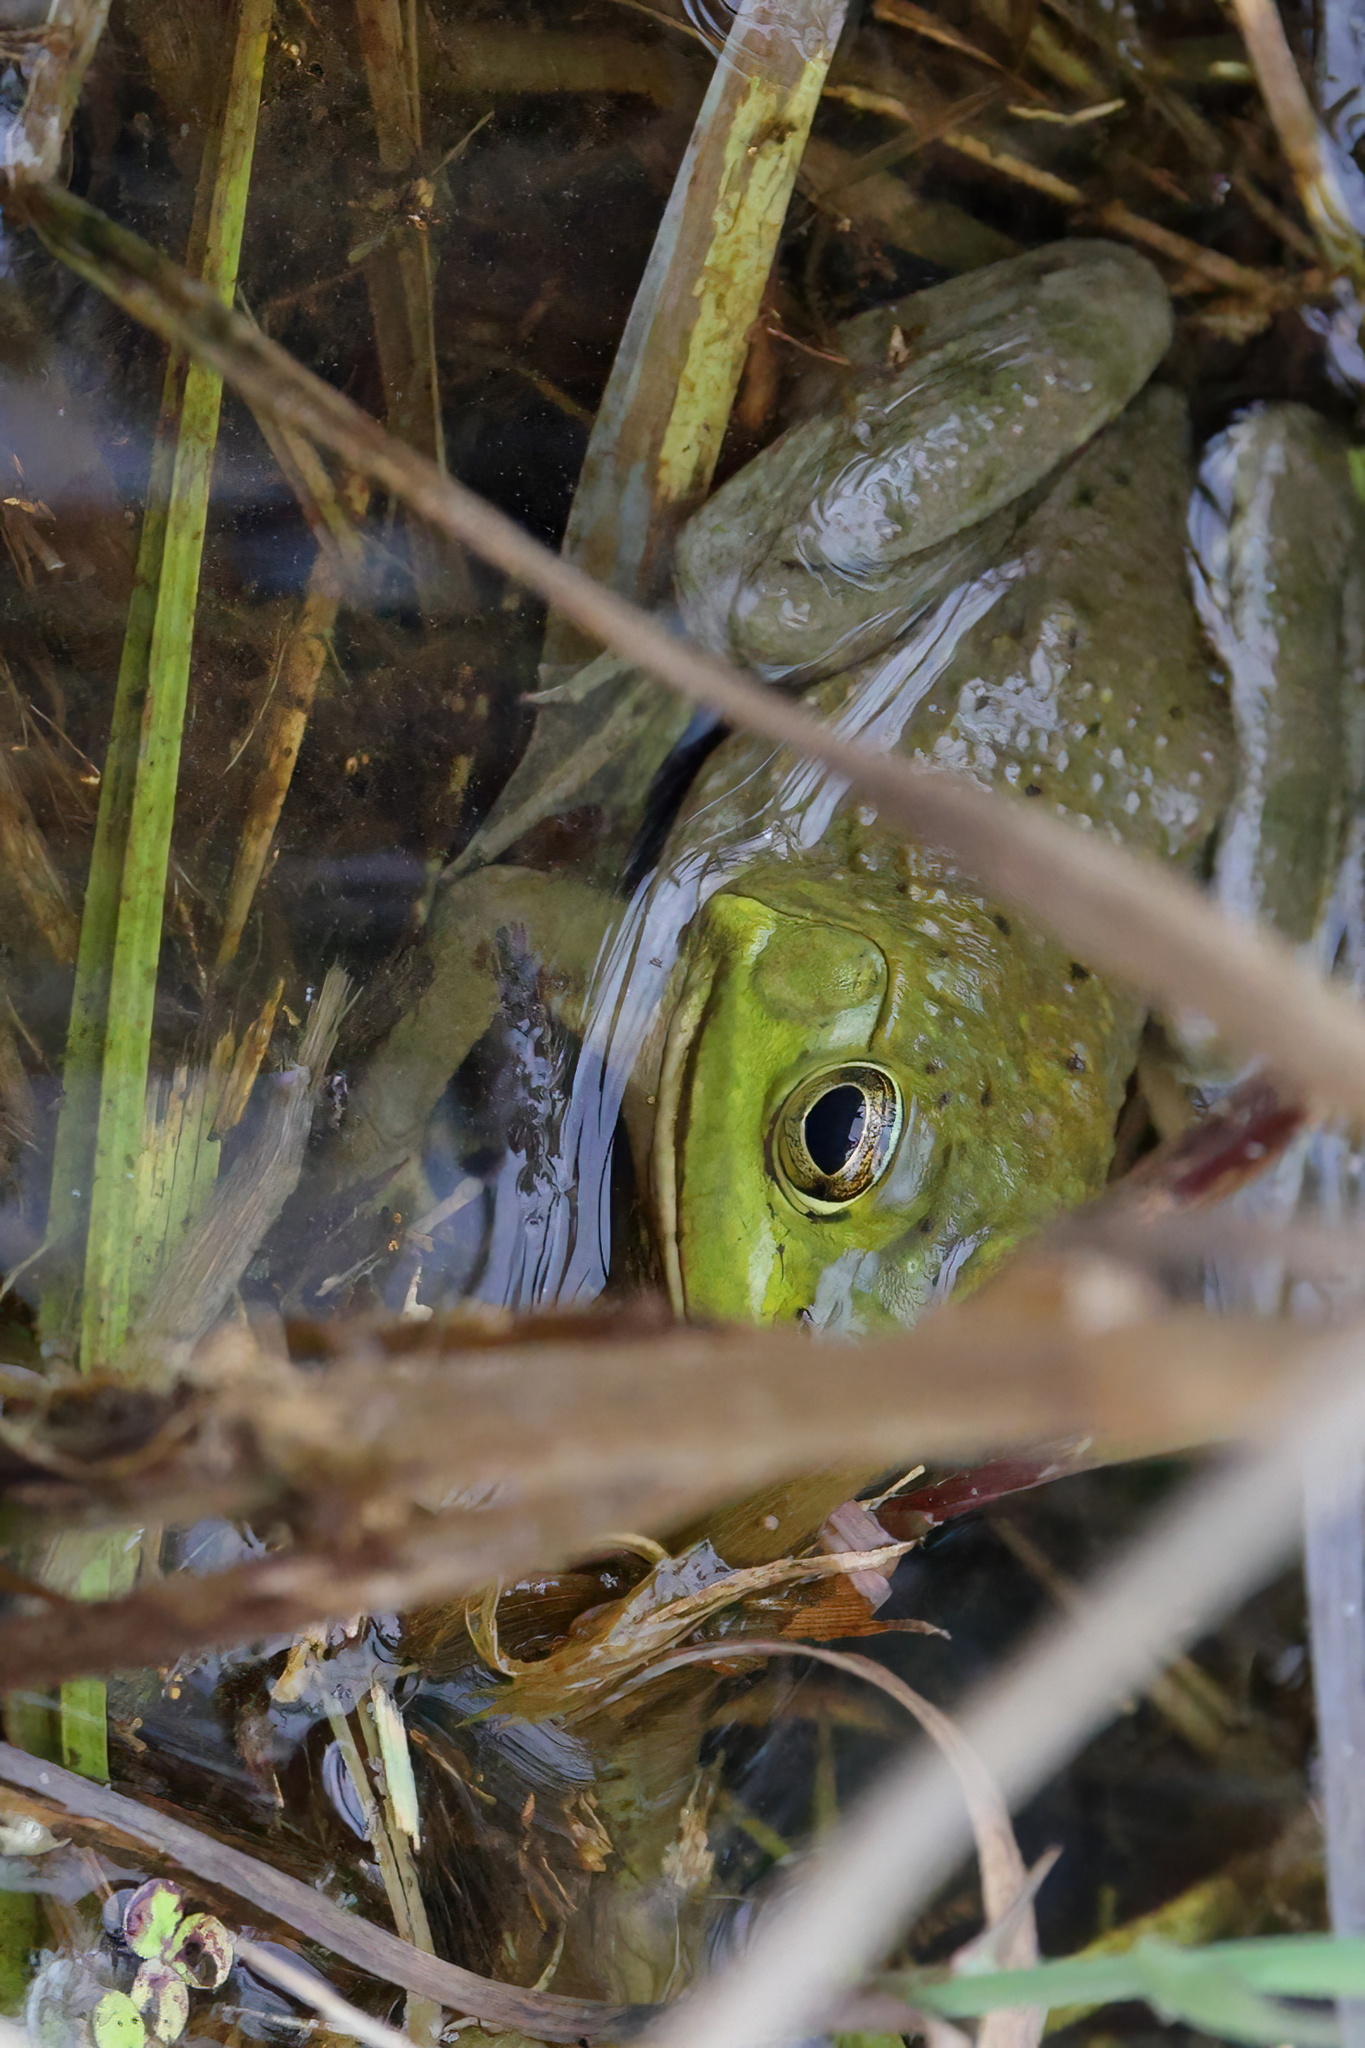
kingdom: Animalia
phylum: Chordata
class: Amphibia
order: Anura
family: Ranidae
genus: Lithobates
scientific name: Lithobates catesbeianus
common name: American bullfrog
